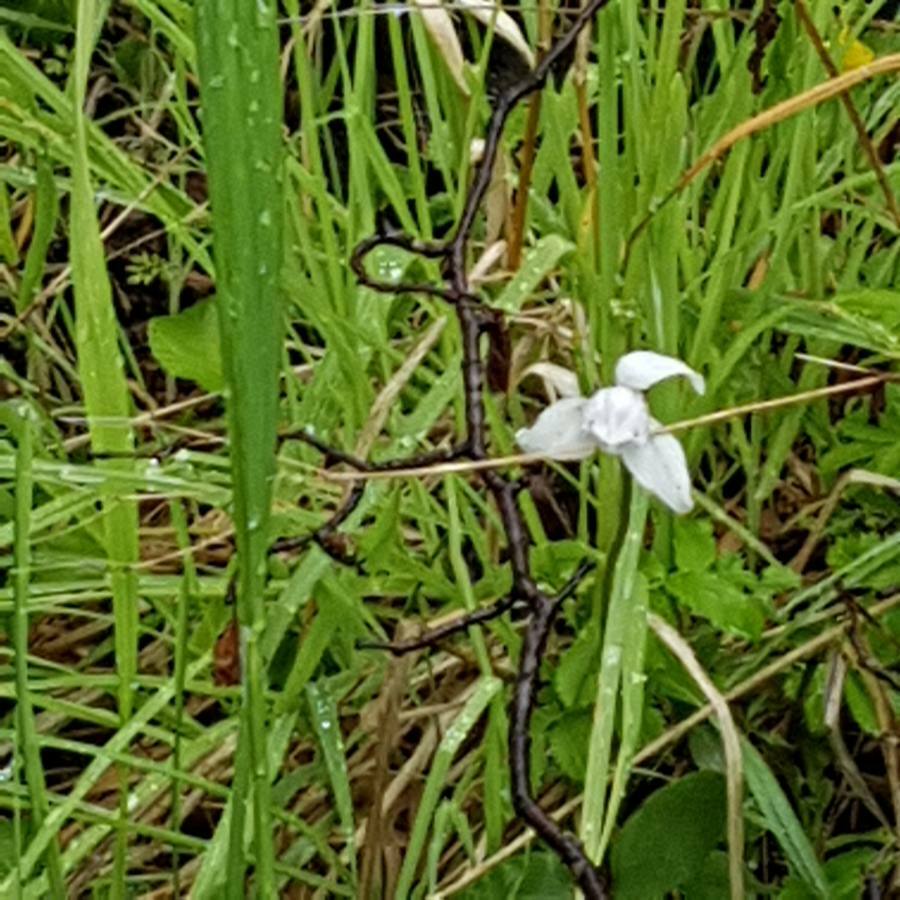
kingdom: Plantae
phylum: Tracheophyta
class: Liliopsida
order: Asparagales
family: Orchidaceae
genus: Codonorchis
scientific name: Codonorchis lessonii
